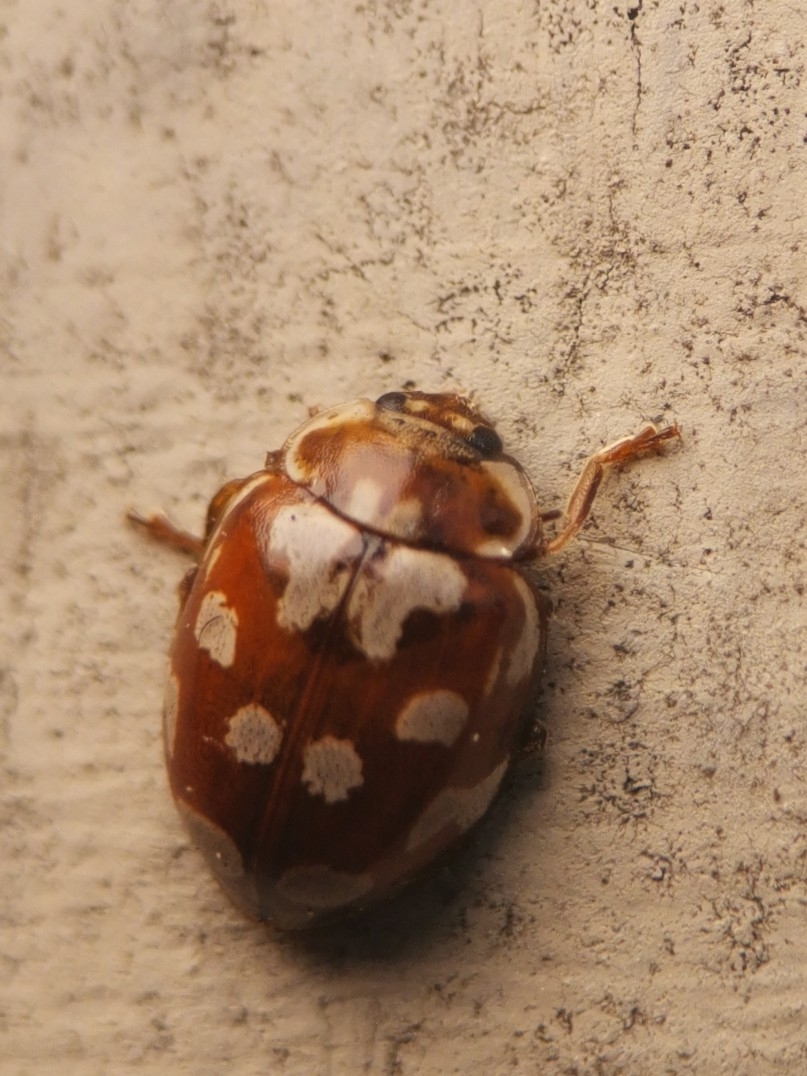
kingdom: Animalia
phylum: Arthropoda
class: Insecta
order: Coleoptera
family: Coccinellidae
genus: Myrrha
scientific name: Myrrha octodecimguttata
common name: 18-spot ladybird
